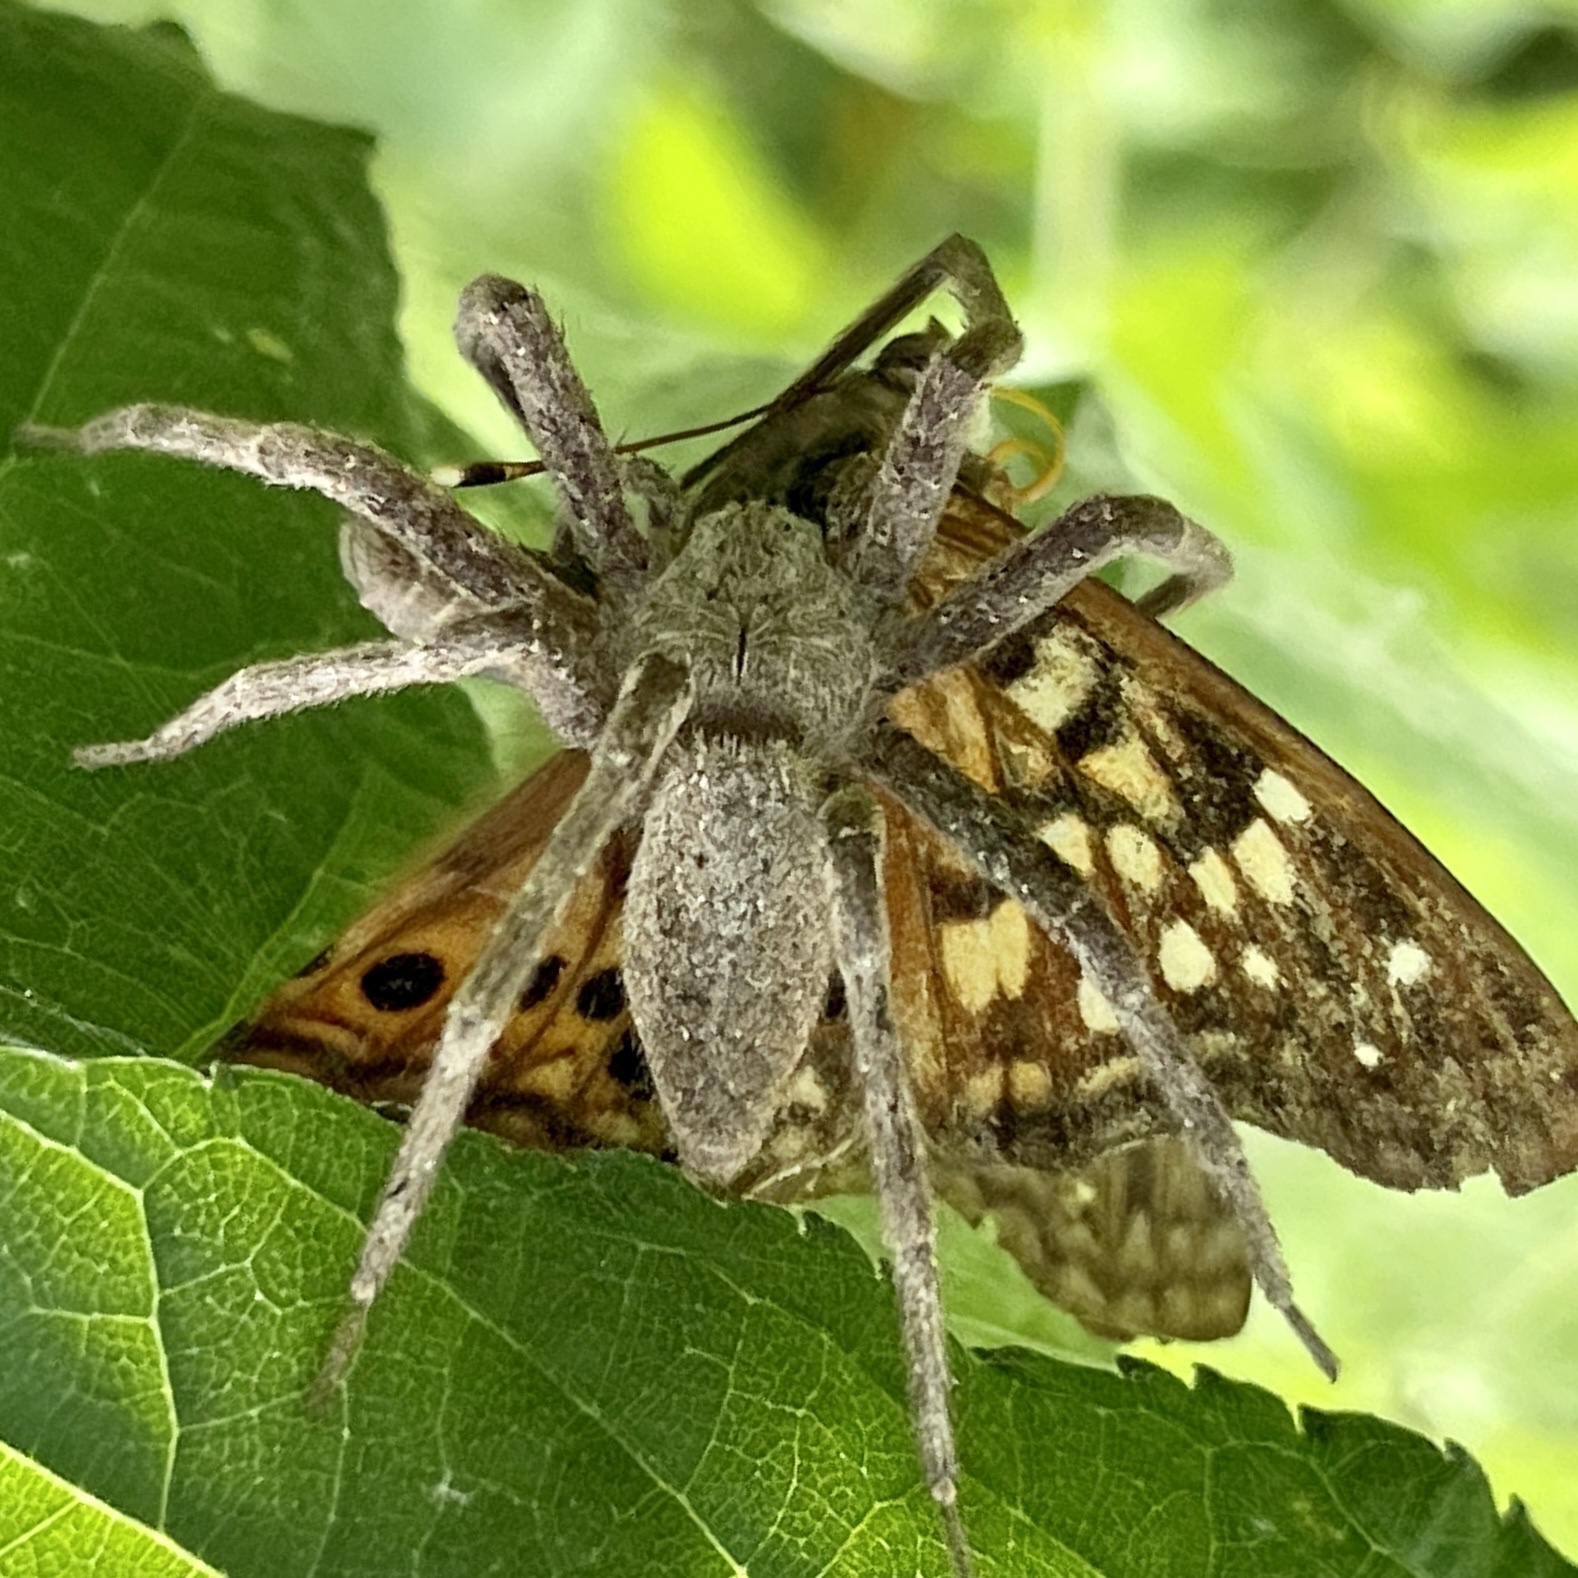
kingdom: Animalia
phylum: Arthropoda
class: Arachnida
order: Araneae
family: Pisauridae
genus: Pisaurina
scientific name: Pisaurina mira
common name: American nursery web spider
